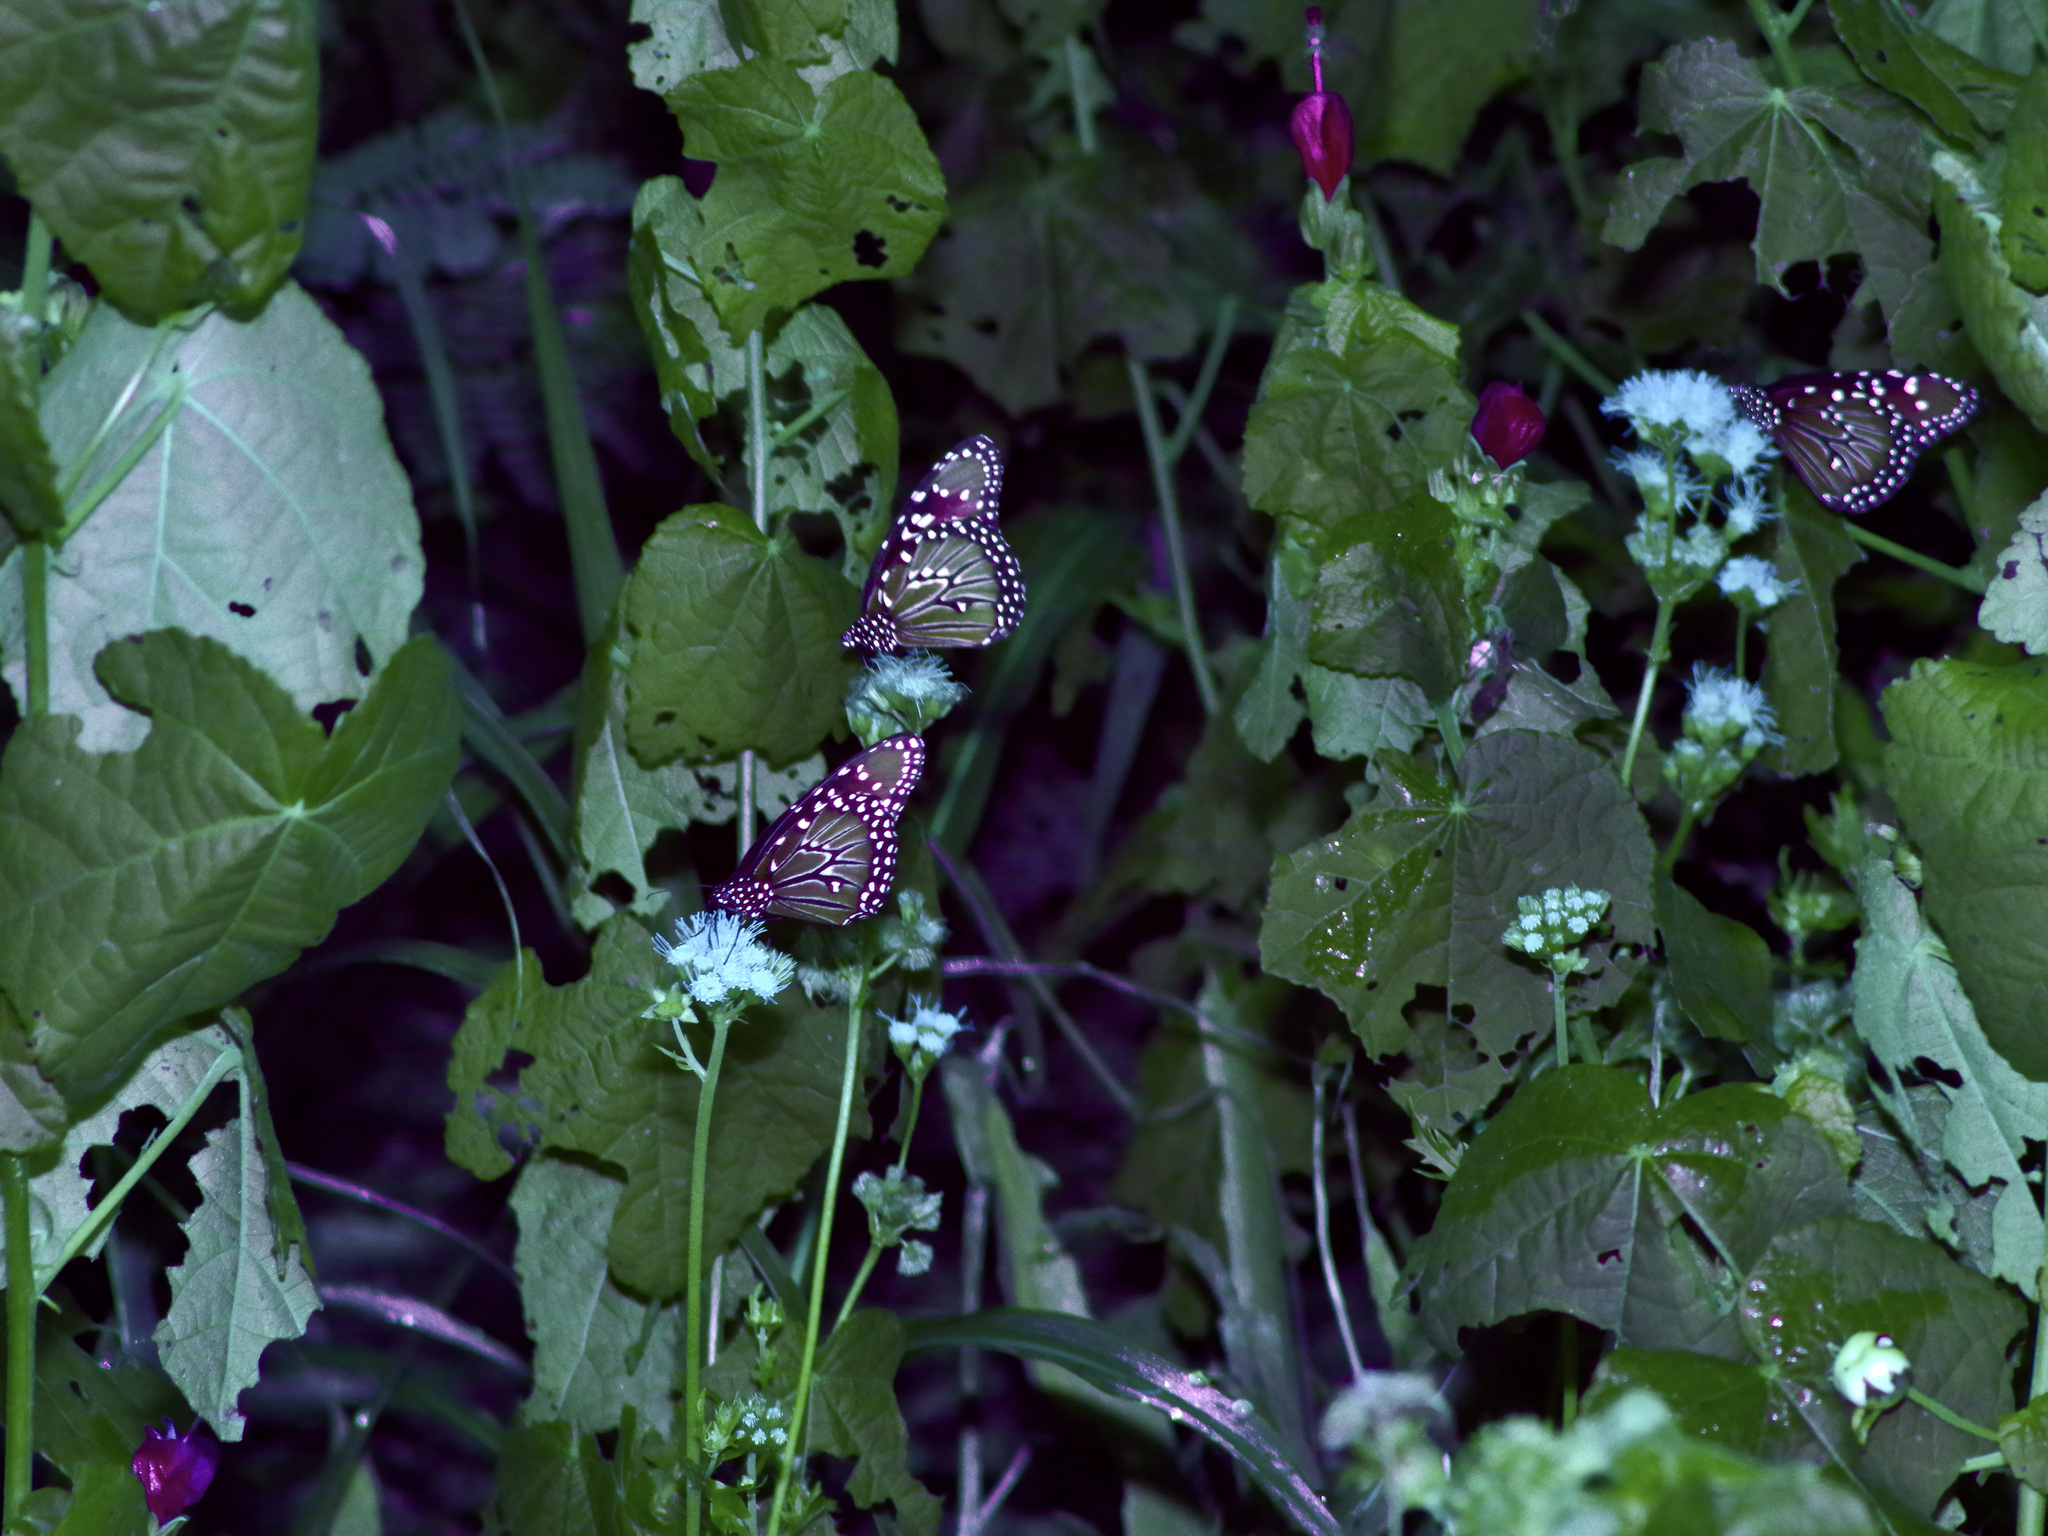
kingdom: Animalia
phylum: Arthropoda
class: Insecta
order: Lepidoptera
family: Nymphalidae
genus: Danaus
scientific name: Danaus gilippus
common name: Queen
